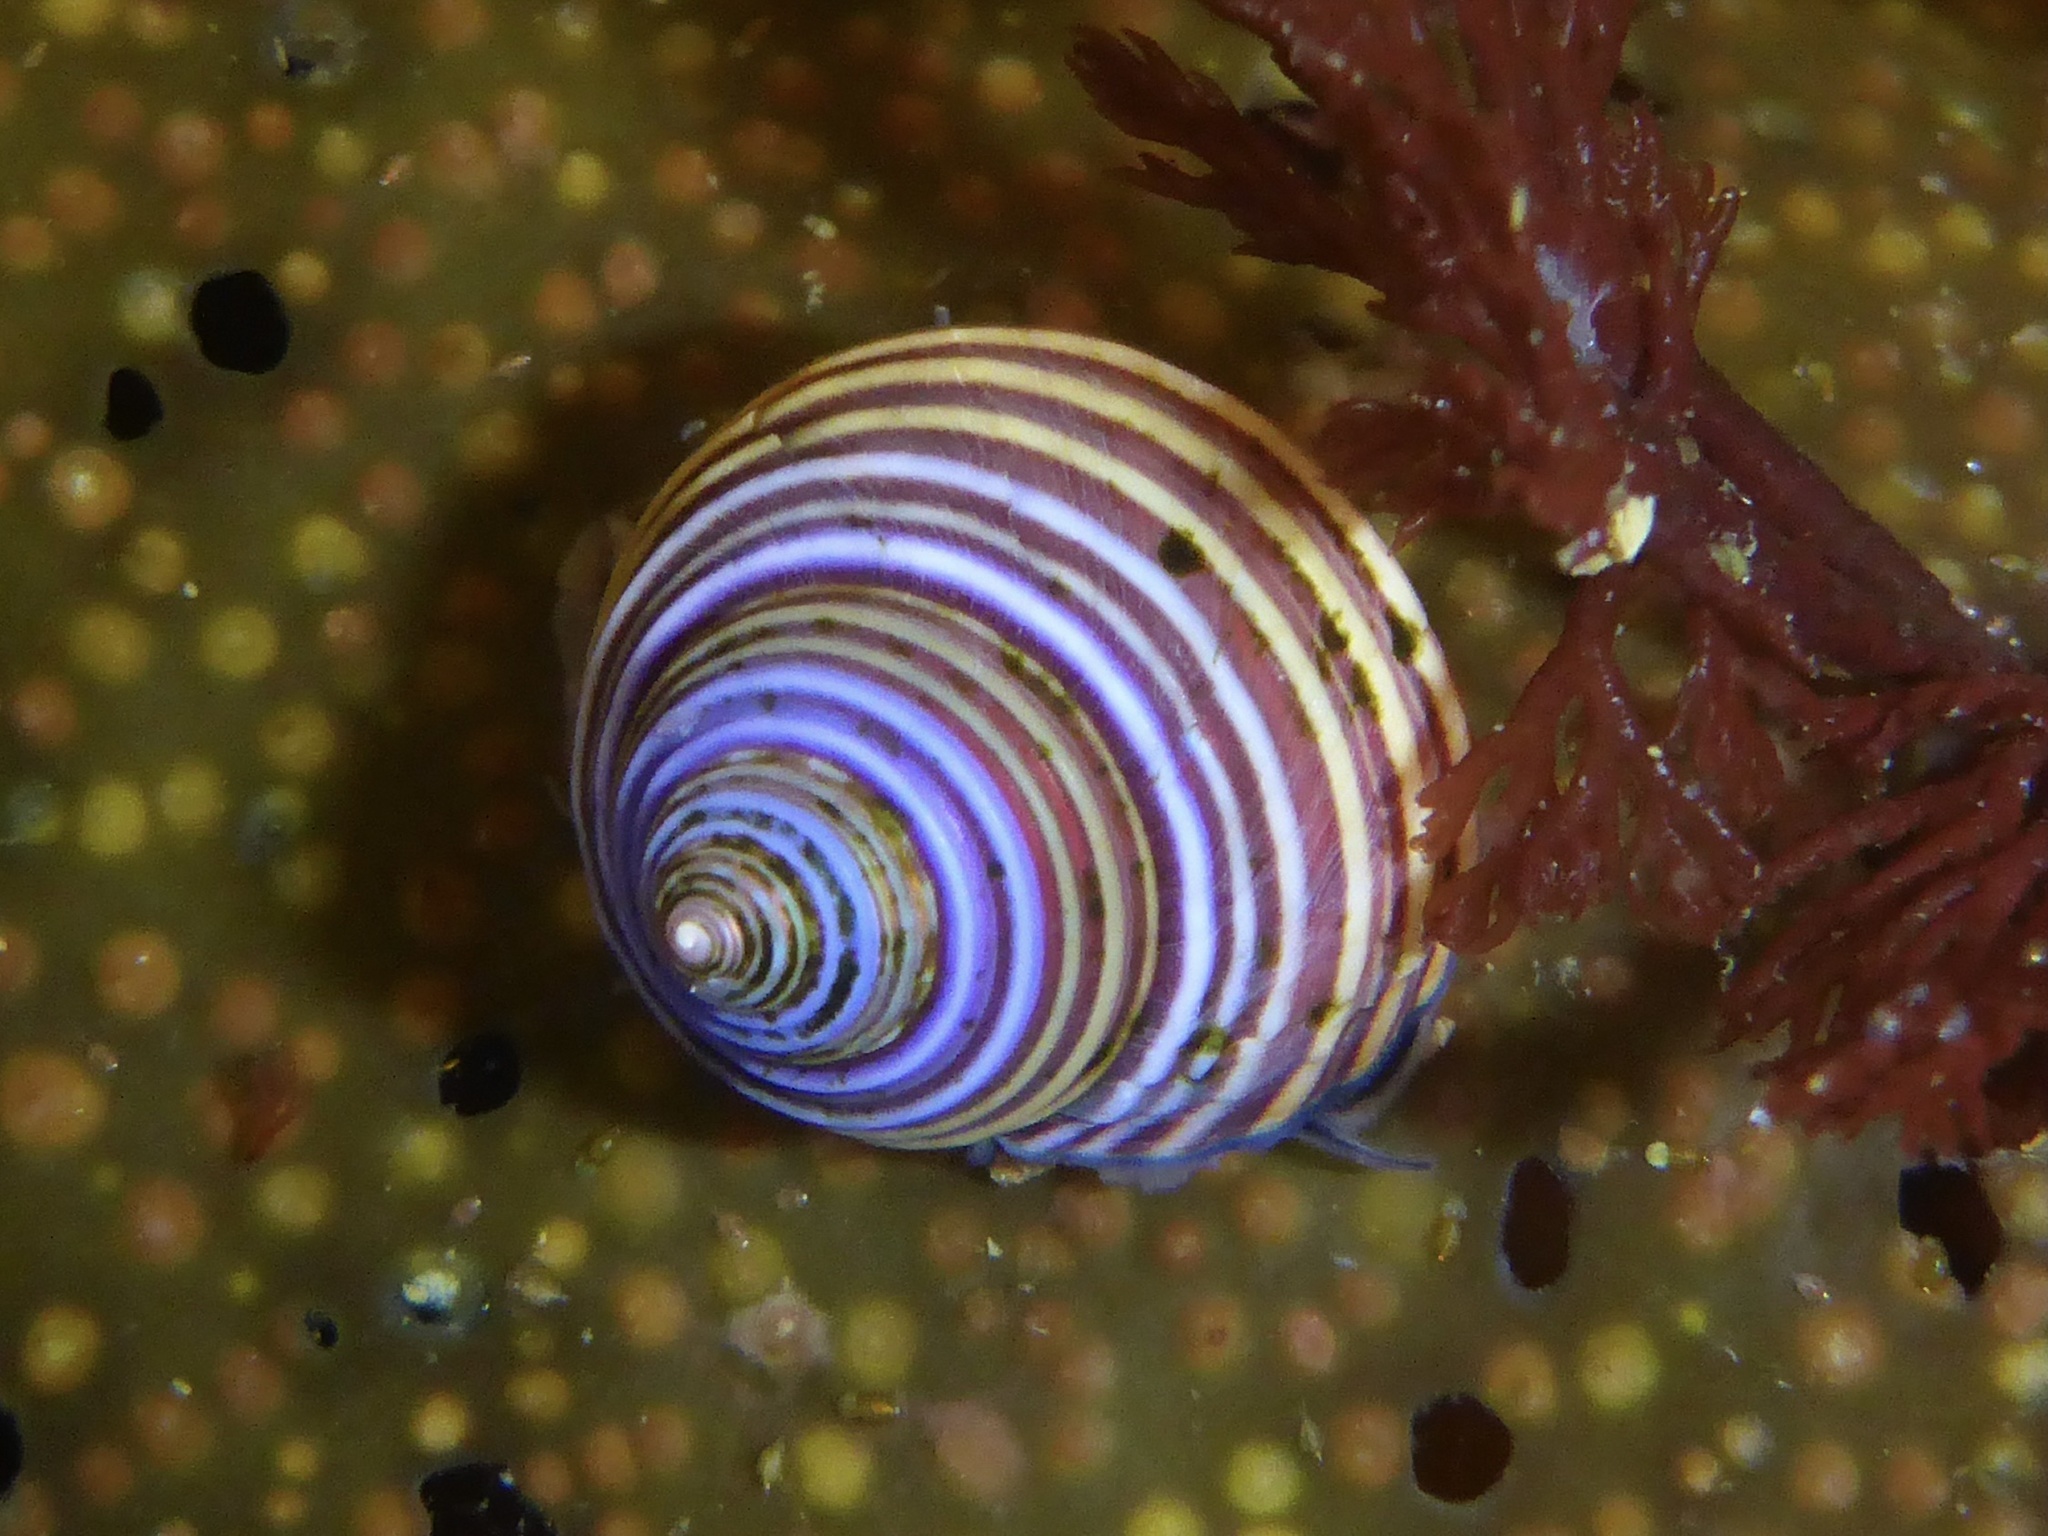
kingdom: Animalia
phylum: Mollusca
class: Gastropoda
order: Trochida
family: Calliostomatidae
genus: Calliostoma
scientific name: Calliostoma ligatum
